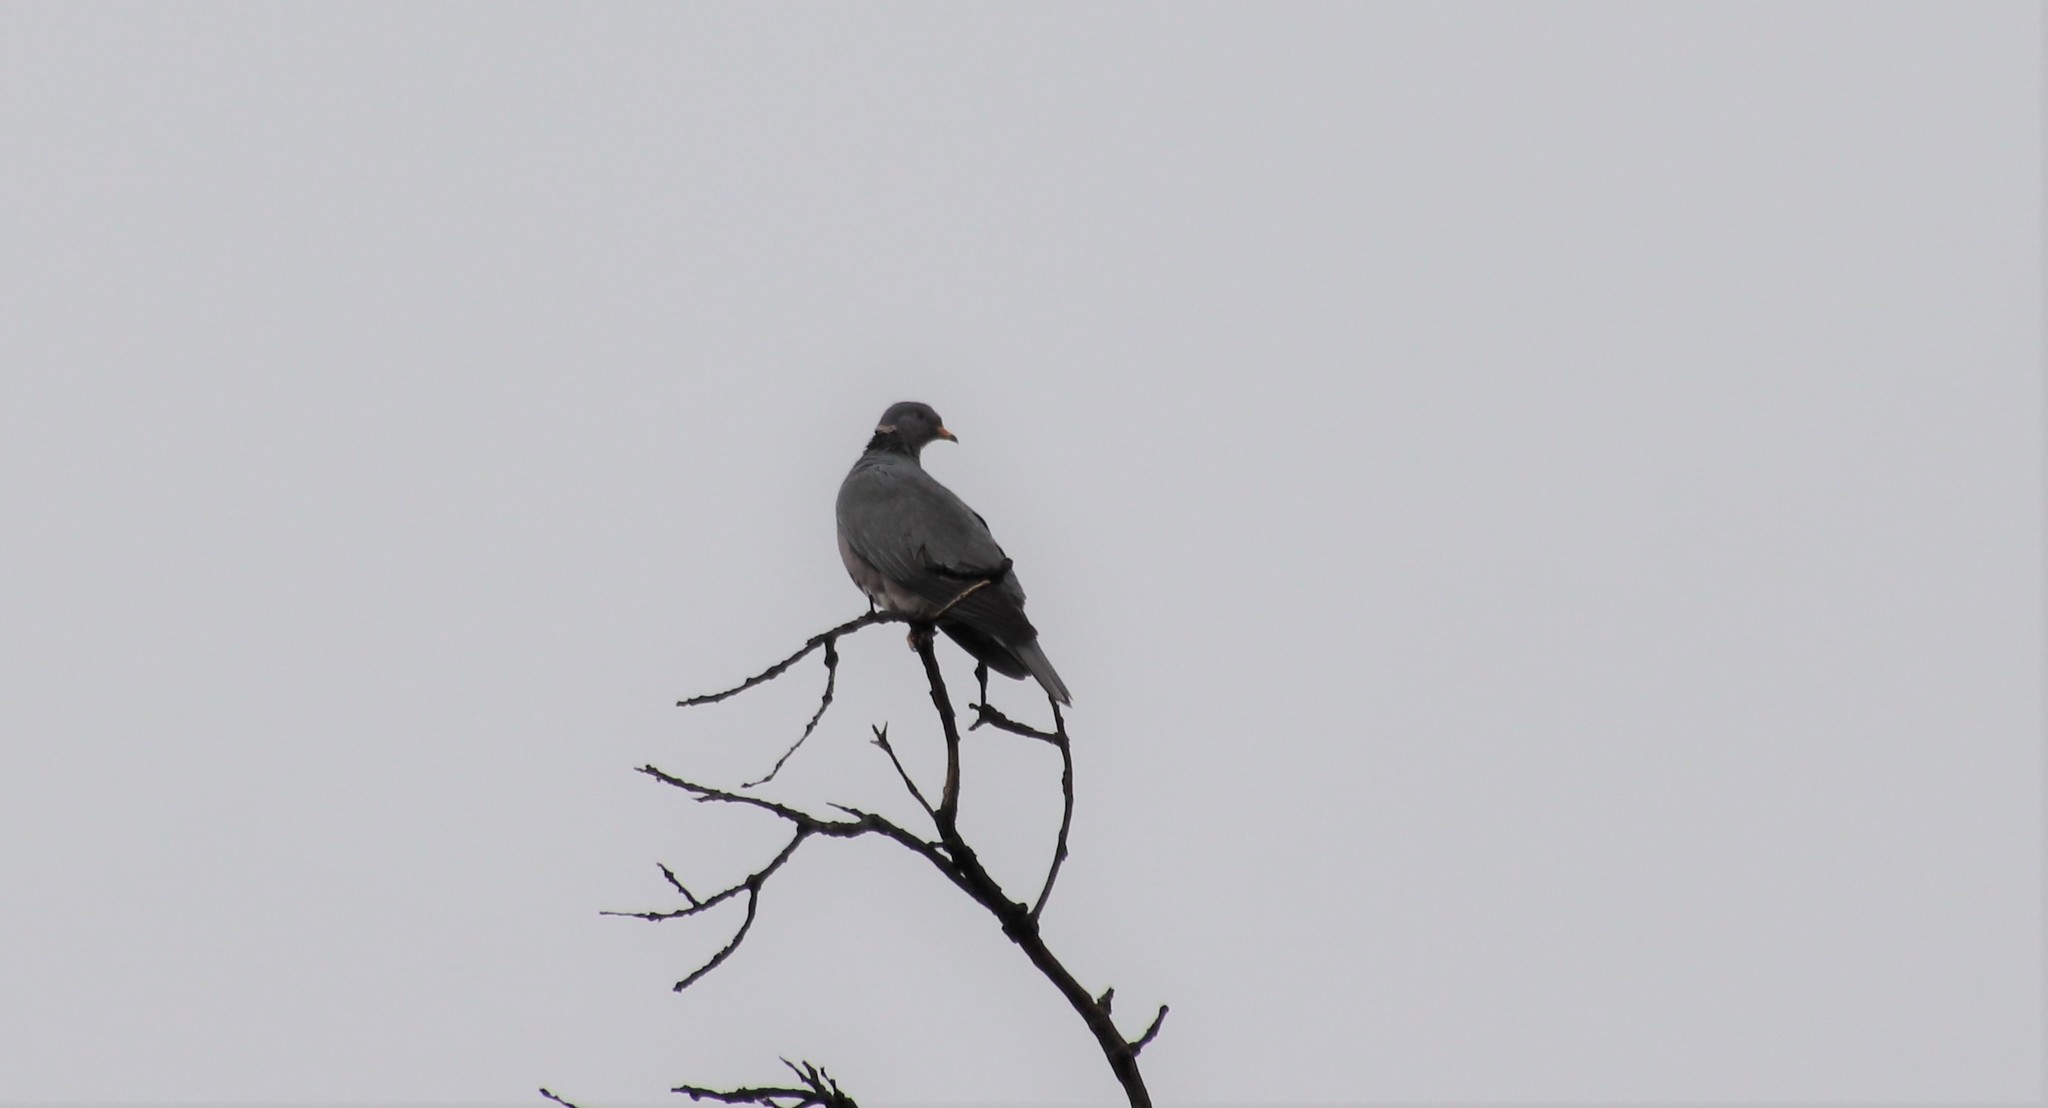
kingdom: Animalia
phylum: Chordata
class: Aves
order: Columbiformes
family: Columbidae
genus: Patagioenas
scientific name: Patagioenas fasciata
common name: Band-tailed pigeon
